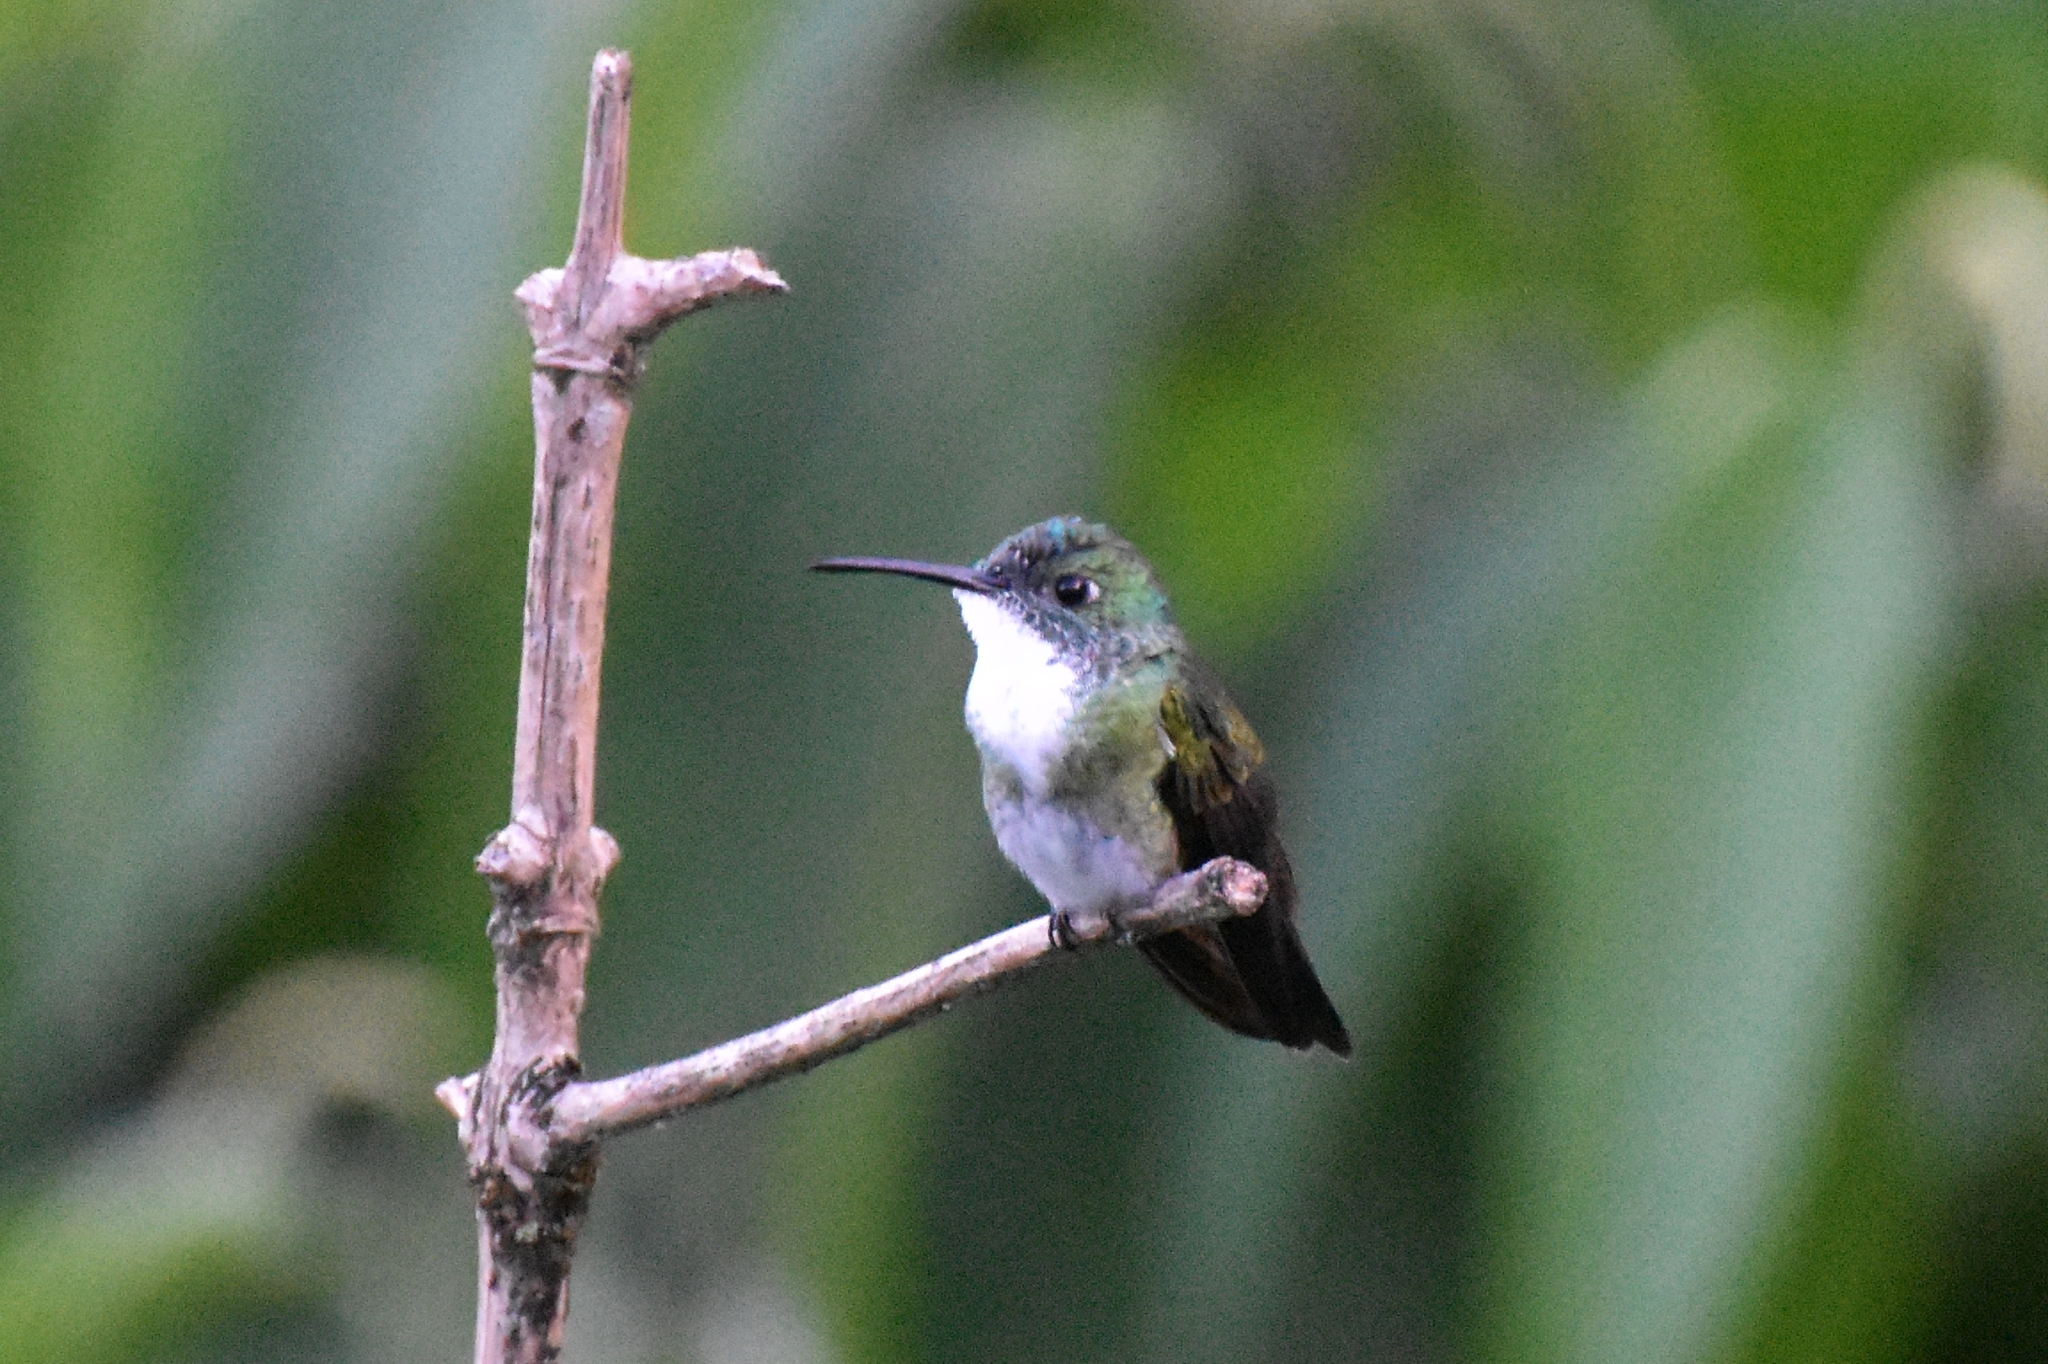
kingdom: Animalia
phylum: Chordata
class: Aves
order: Apodiformes
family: Trochilidae
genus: Chrysuronia
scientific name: Chrysuronia brevirostris
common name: White-chested emerald
